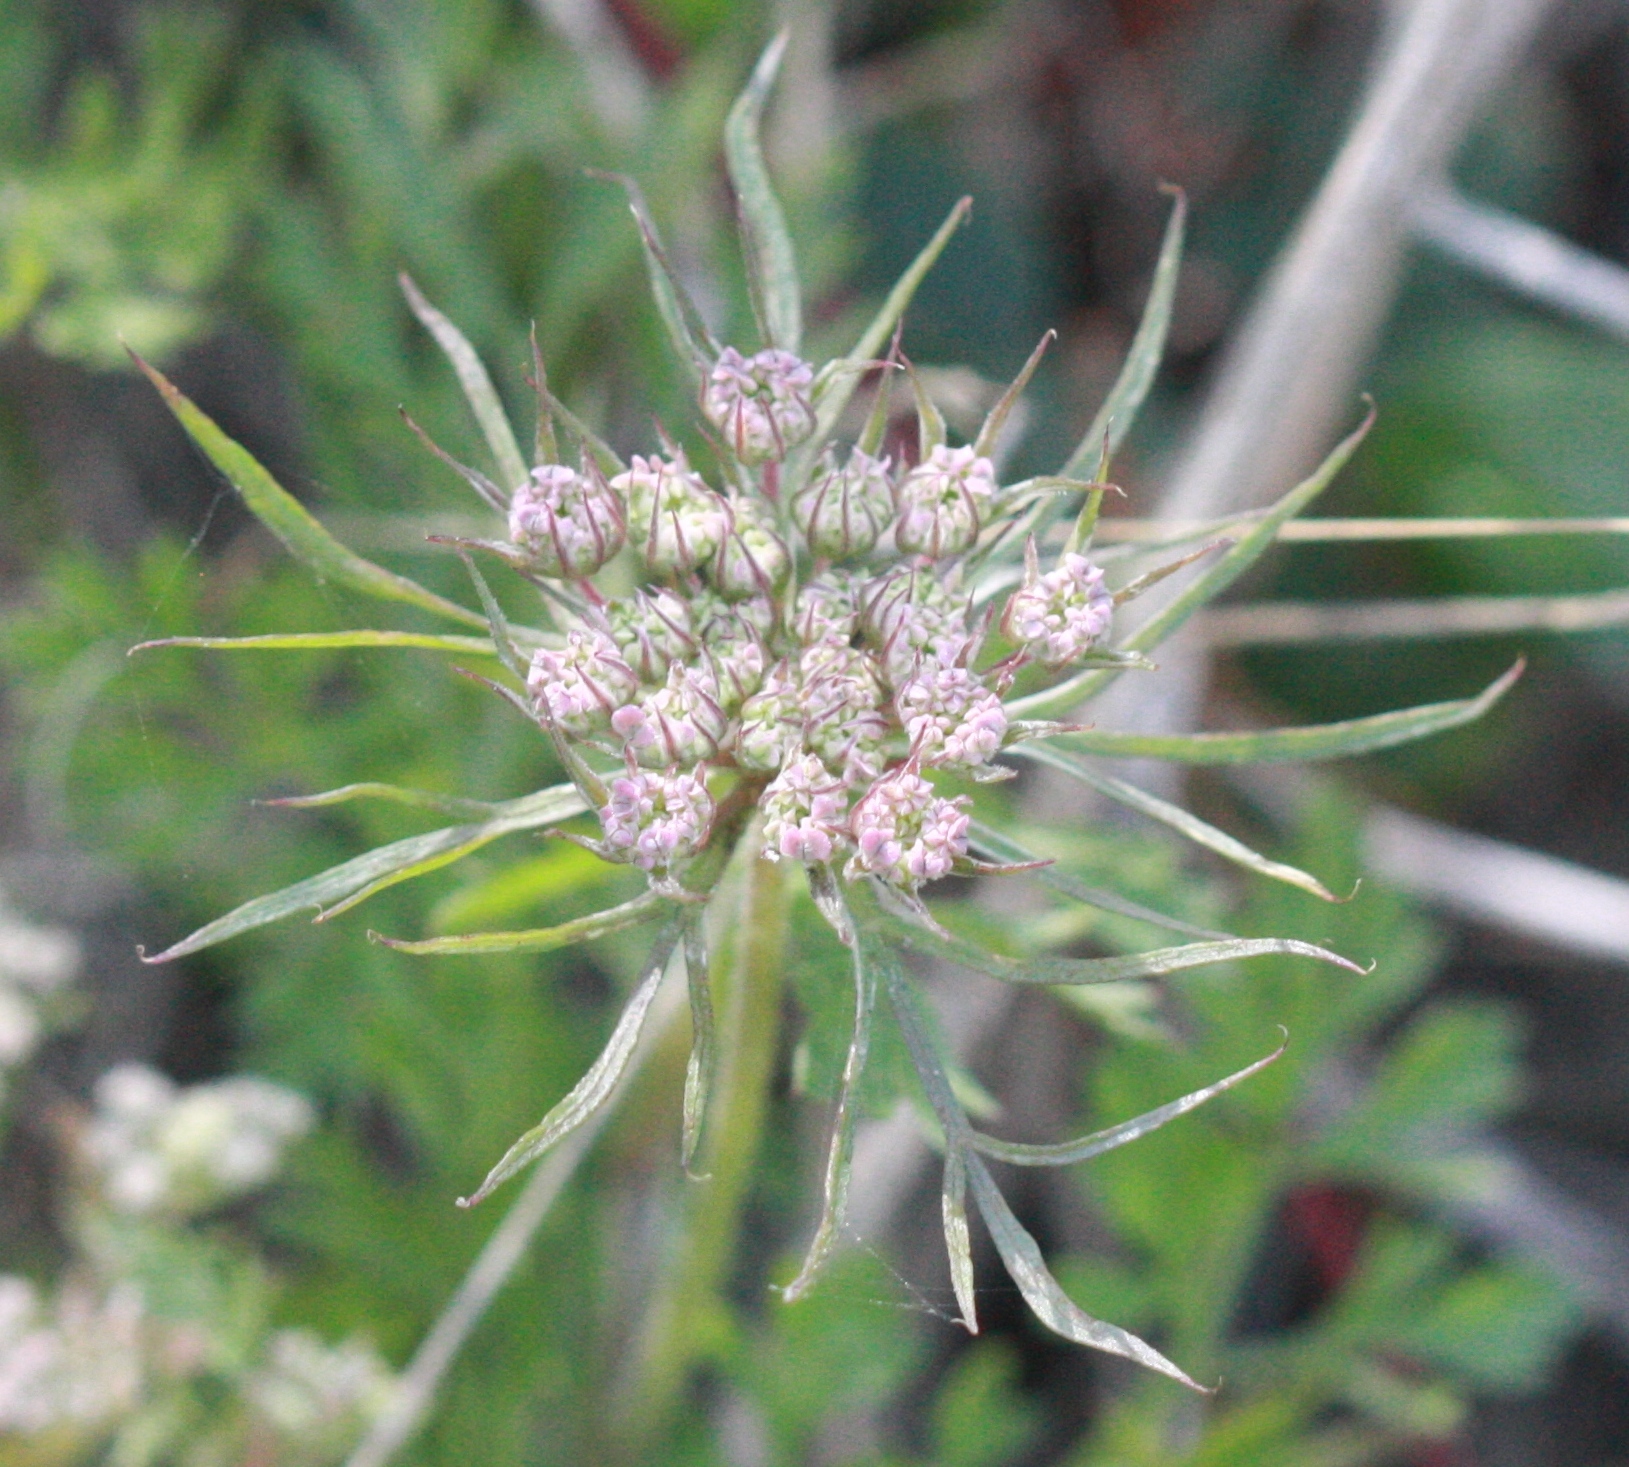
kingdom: Plantae
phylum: Tracheophyta
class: Magnoliopsida
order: Apiales
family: Apiaceae
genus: Daucus
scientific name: Daucus carota
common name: Wild carrot
